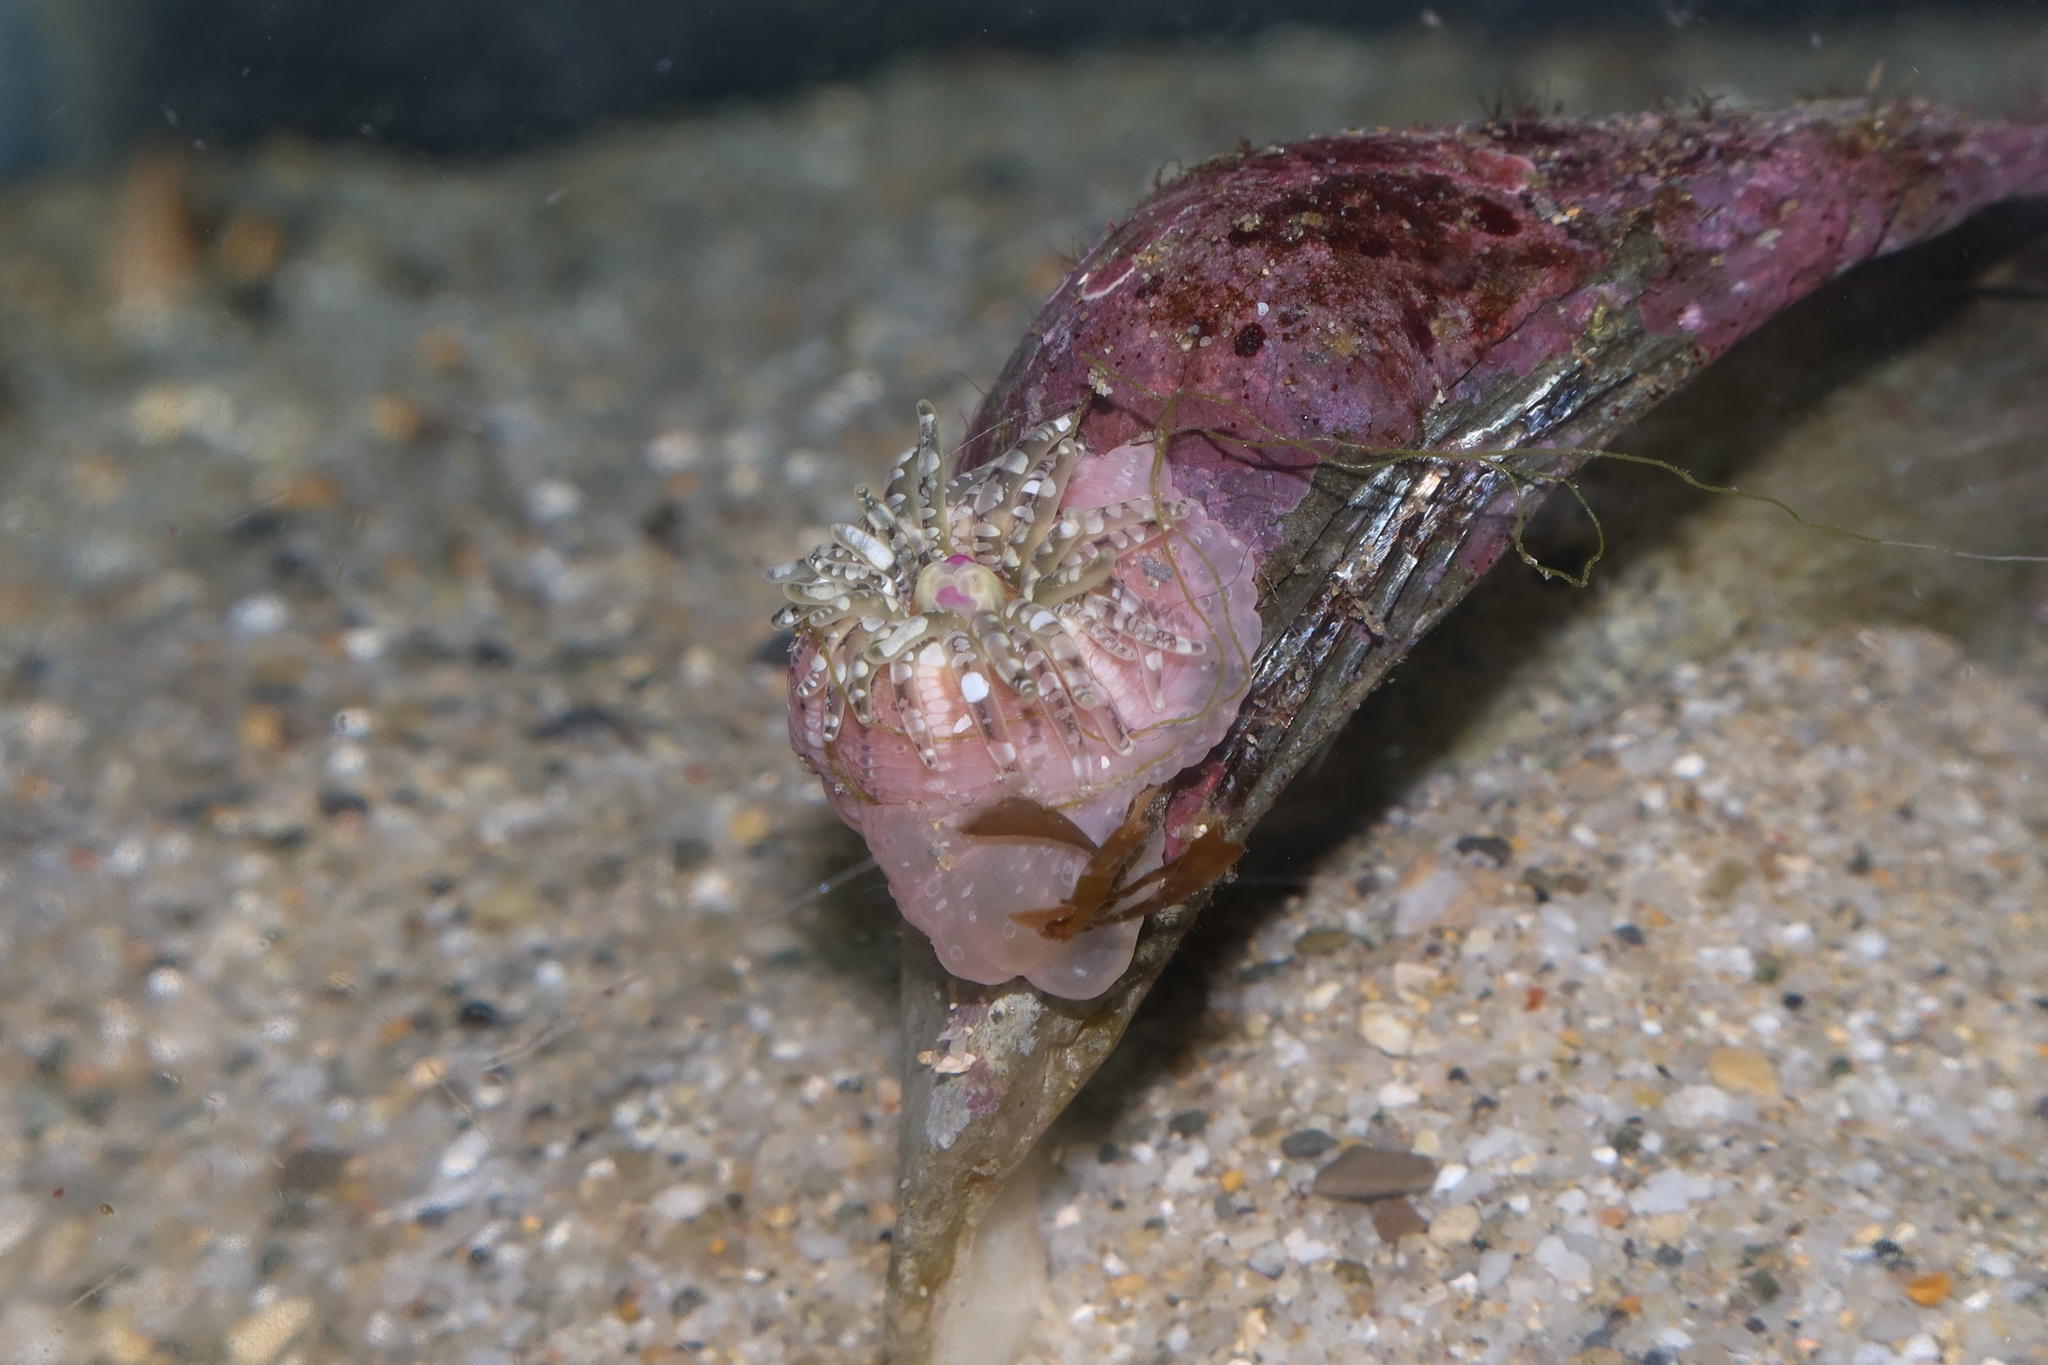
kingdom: Animalia
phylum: Cnidaria
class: Anthozoa
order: Actiniaria
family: Actiniidae
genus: Bunodactis
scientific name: Bunodactis verrucosa
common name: Gem anemone
